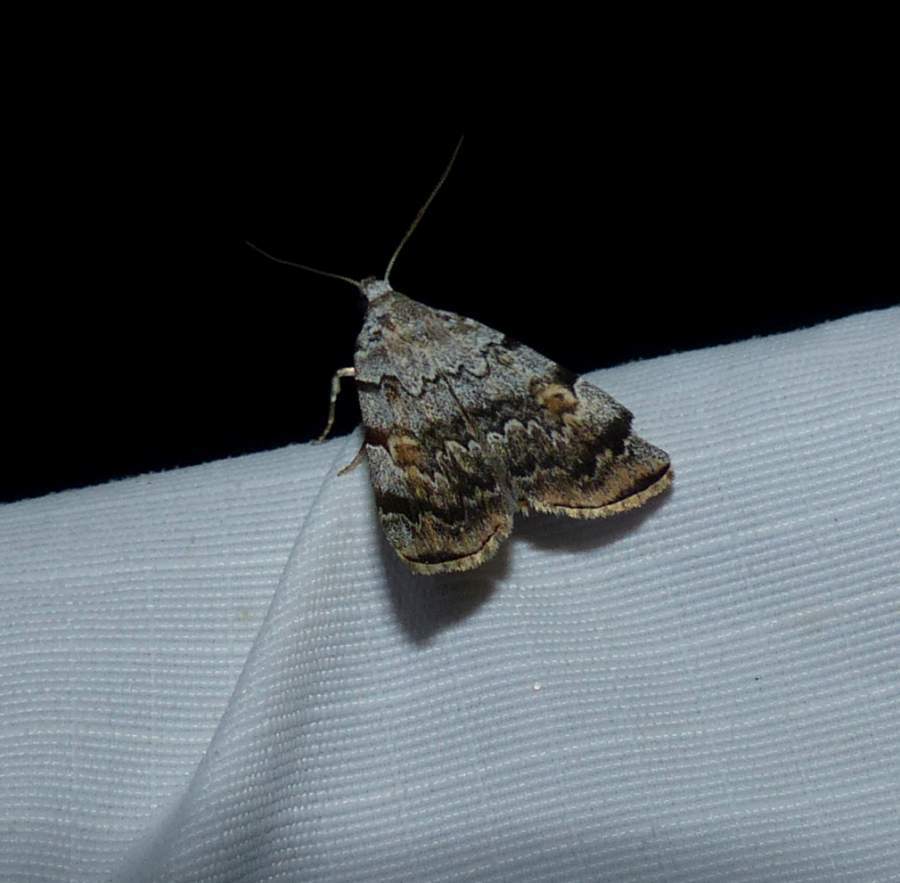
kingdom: Animalia
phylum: Arthropoda
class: Insecta
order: Lepidoptera
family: Erebidae
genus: Idia
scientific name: Idia americalis
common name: American idia moth
